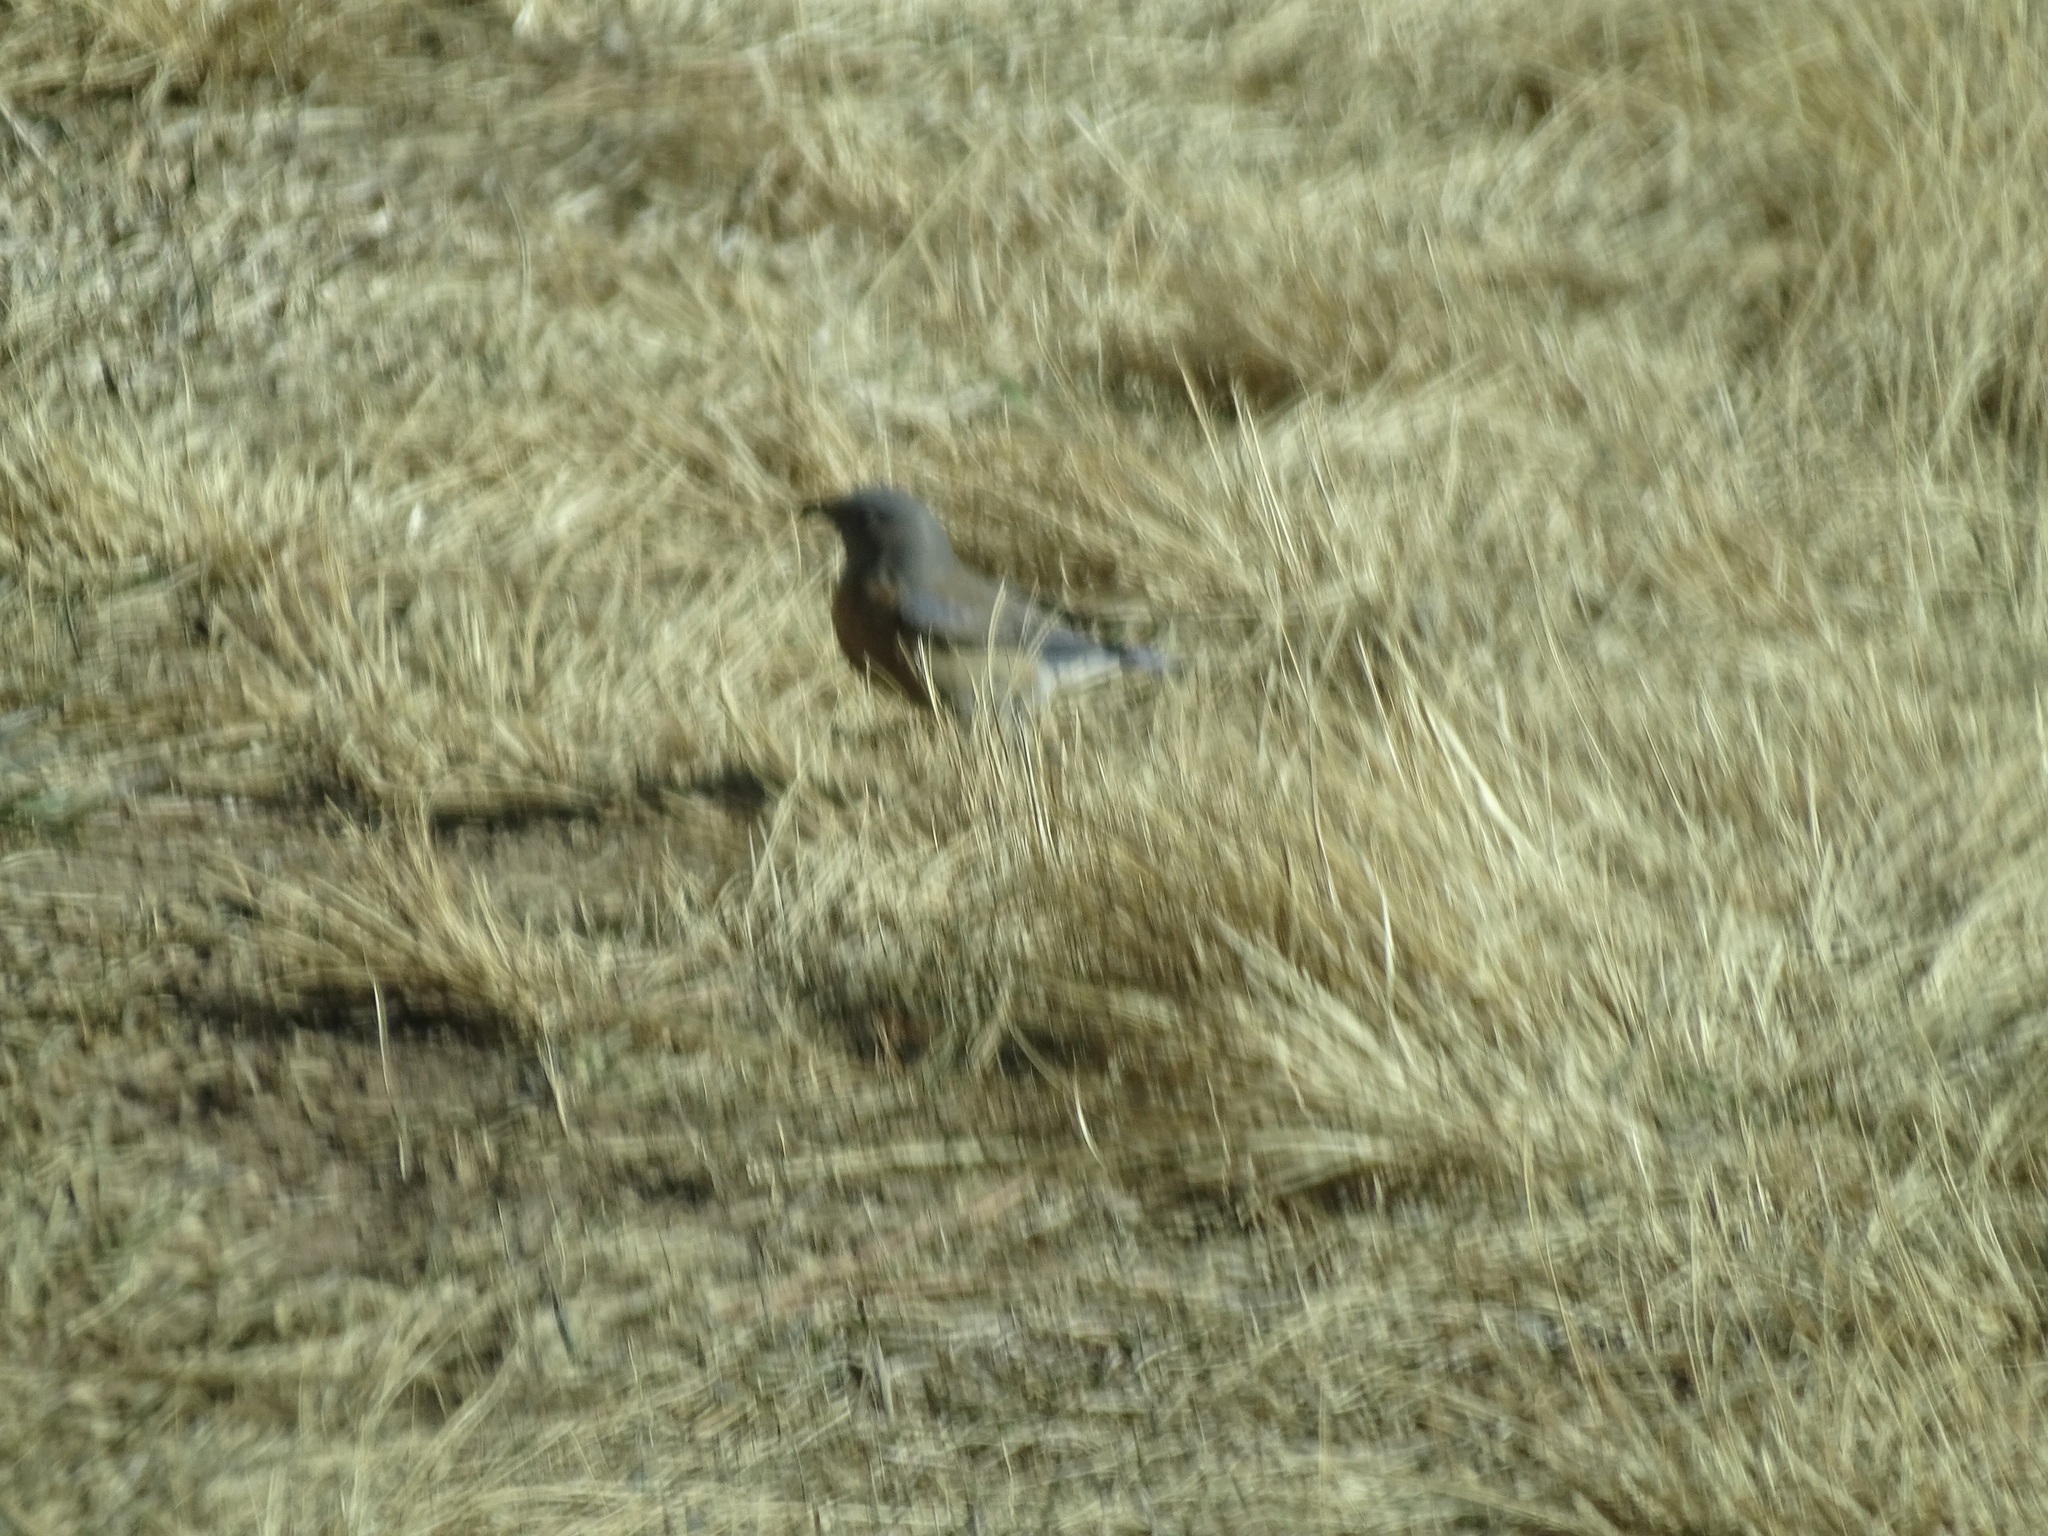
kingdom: Animalia
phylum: Chordata
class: Aves
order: Passeriformes
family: Turdidae
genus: Sialia
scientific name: Sialia mexicana
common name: Western bluebird
